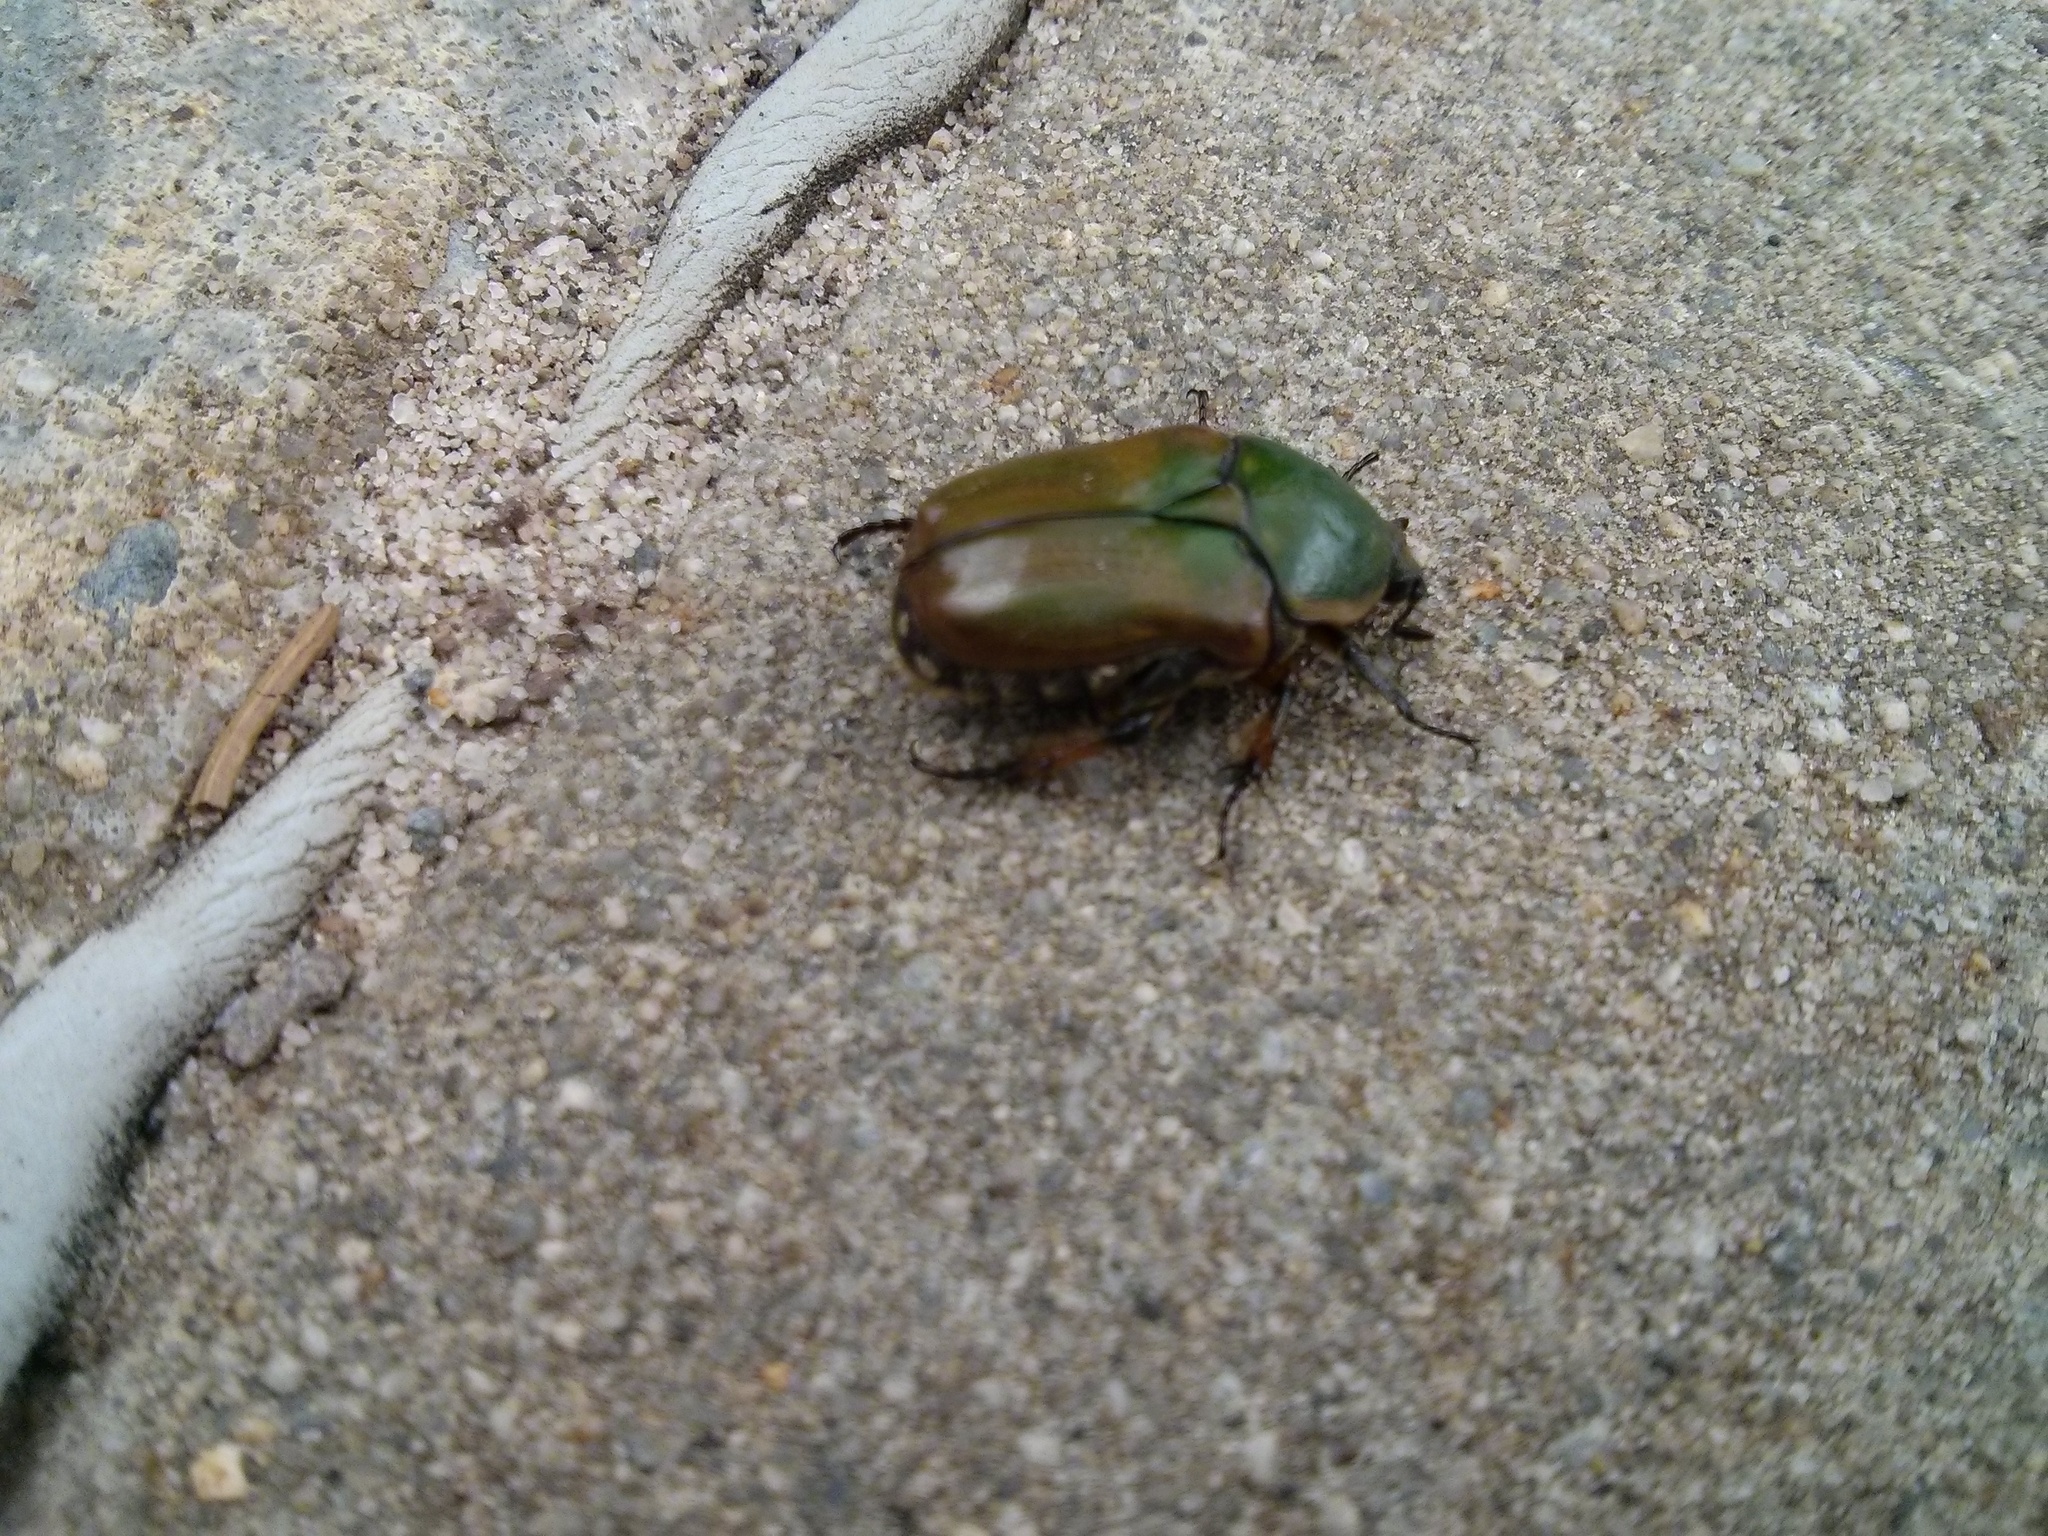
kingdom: Animalia
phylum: Arthropoda
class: Insecta
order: Coleoptera
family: Scarabaeidae
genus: Euphoria
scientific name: Euphoria fulgida
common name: Emerald euphoria
